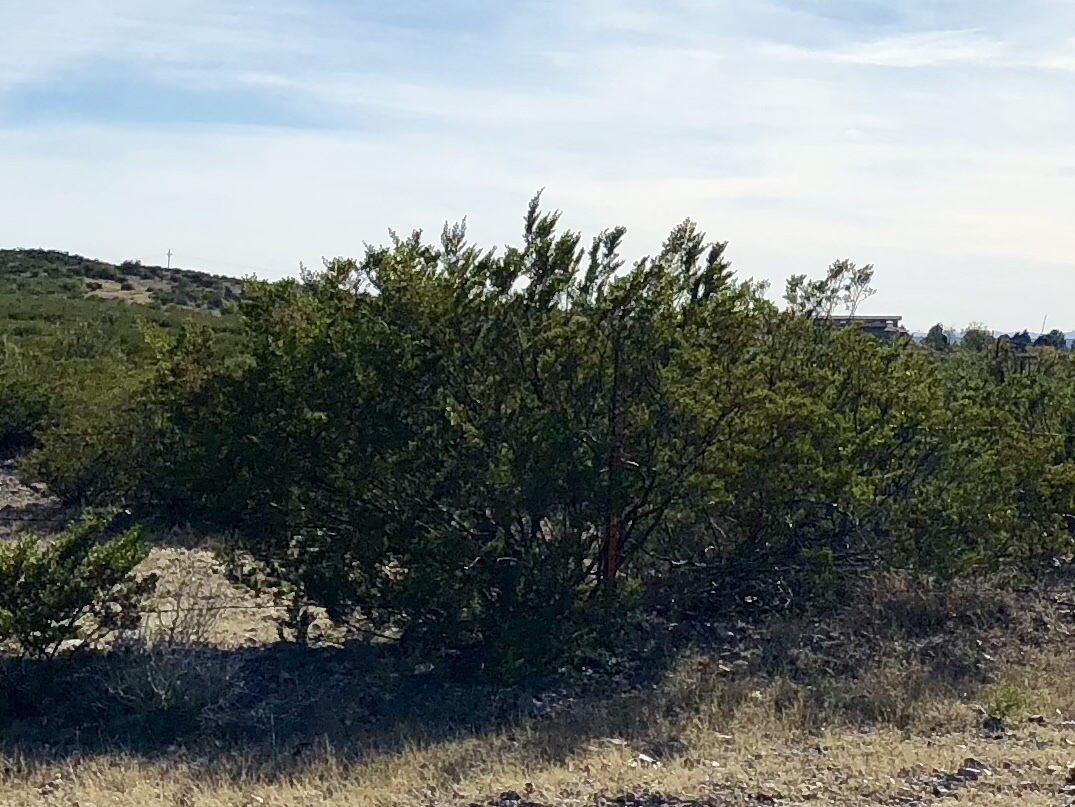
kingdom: Plantae
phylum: Tracheophyta
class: Magnoliopsida
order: Zygophyllales
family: Zygophyllaceae
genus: Larrea
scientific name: Larrea tridentata
